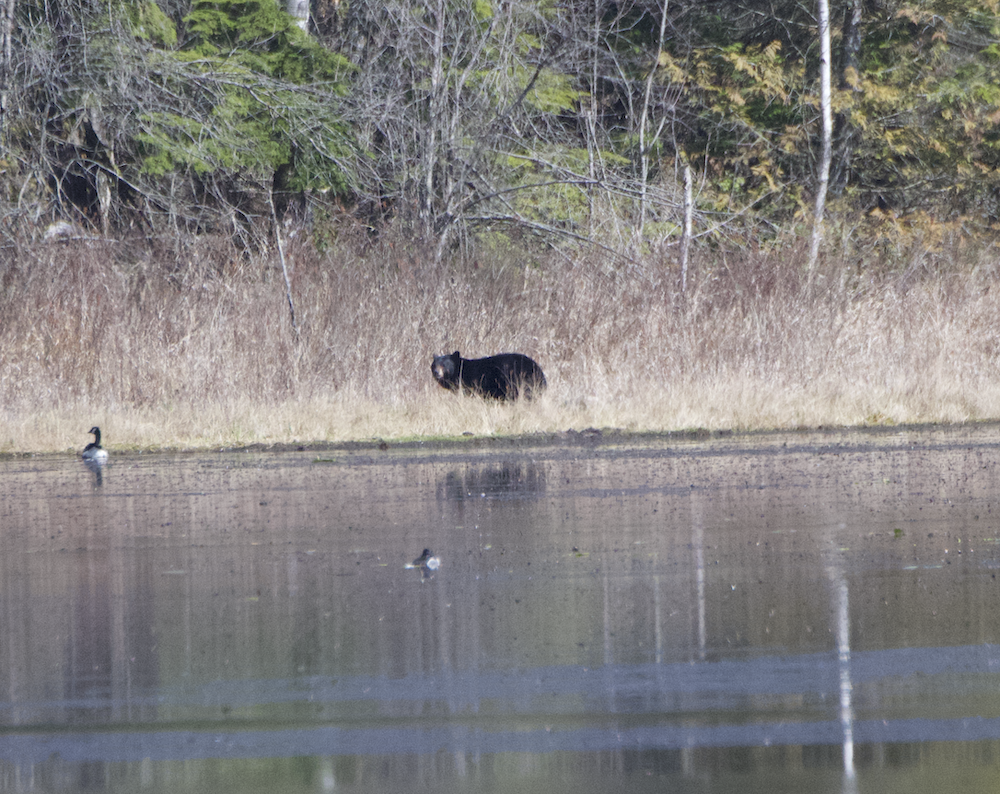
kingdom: Animalia
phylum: Chordata
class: Mammalia
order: Carnivora
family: Ursidae
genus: Ursus
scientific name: Ursus americanus
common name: American black bear
